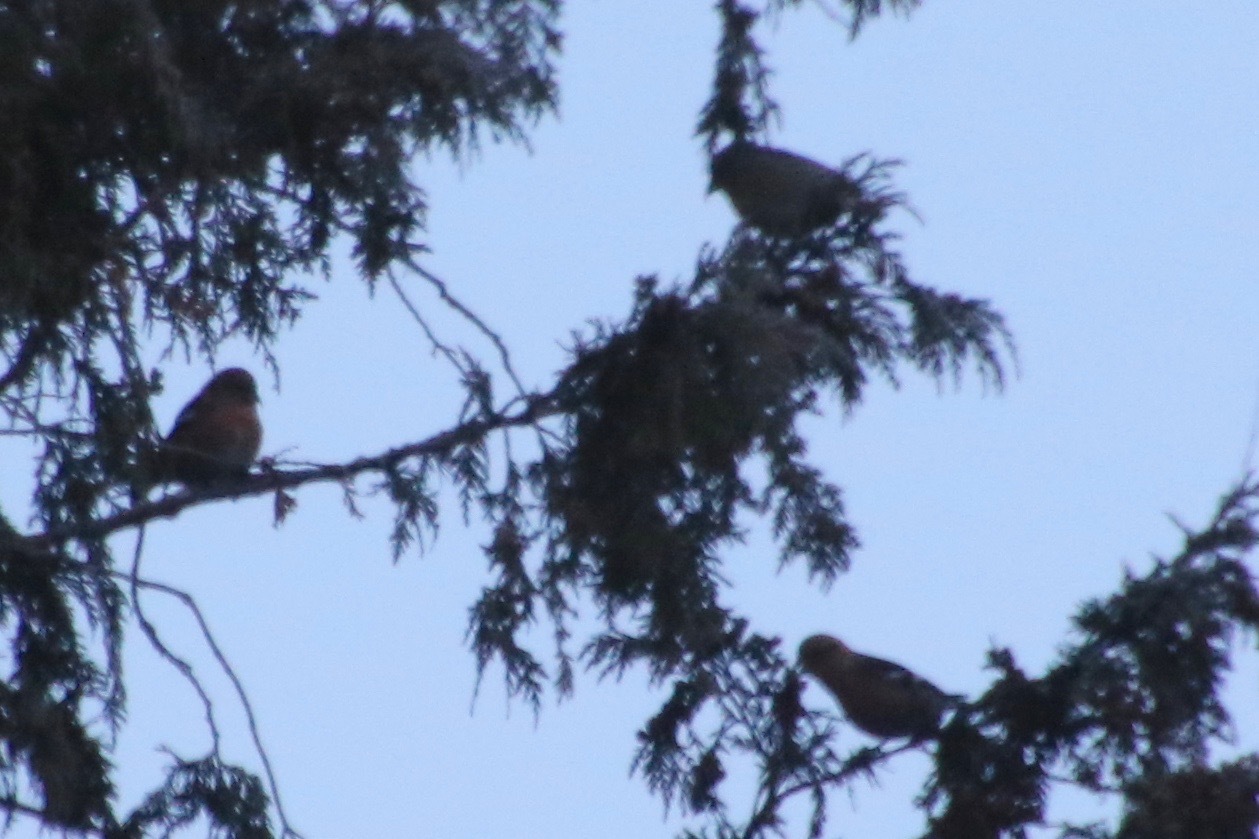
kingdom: Animalia
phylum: Chordata
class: Aves
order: Passeriformes
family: Fringillidae
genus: Loxia
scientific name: Loxia leucoptera
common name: Two-barred crossbill
